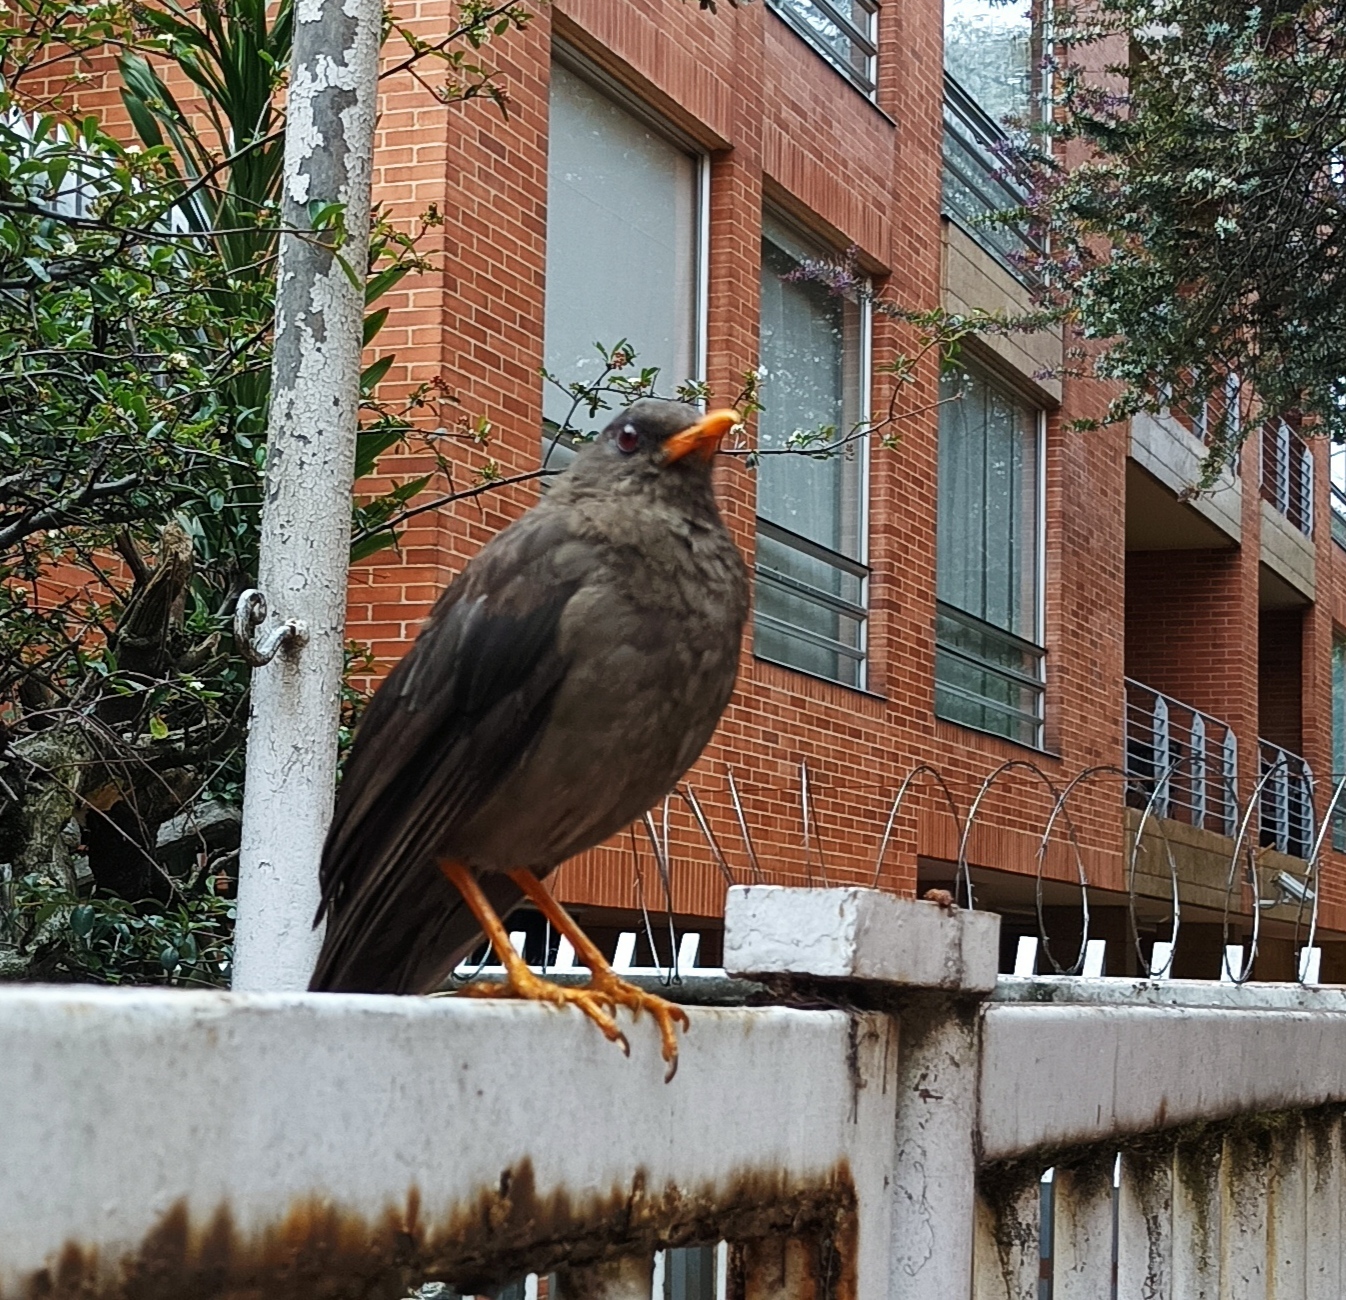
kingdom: Animalia
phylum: Chordata
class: Aves
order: Passeriformes
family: Turdidae
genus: Turdus
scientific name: Turdus fuscater
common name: Great thrush
